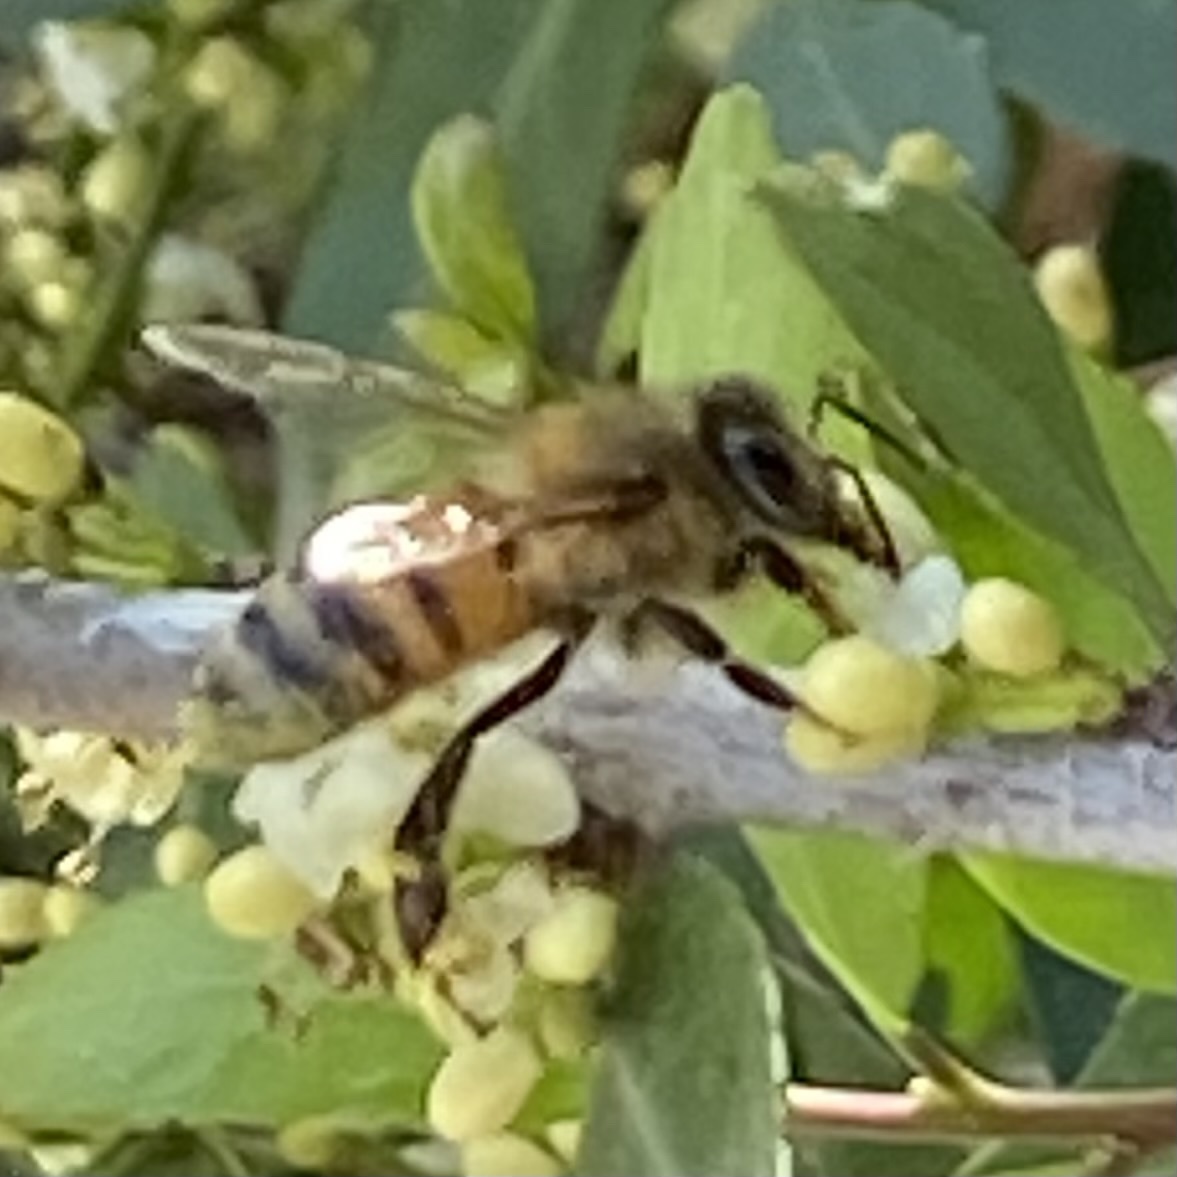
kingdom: Animalia
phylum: Arthropoda
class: Insecta
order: Hymenoptera
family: Apidae
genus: Apis
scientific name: Apis mellifera
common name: Honey bee
